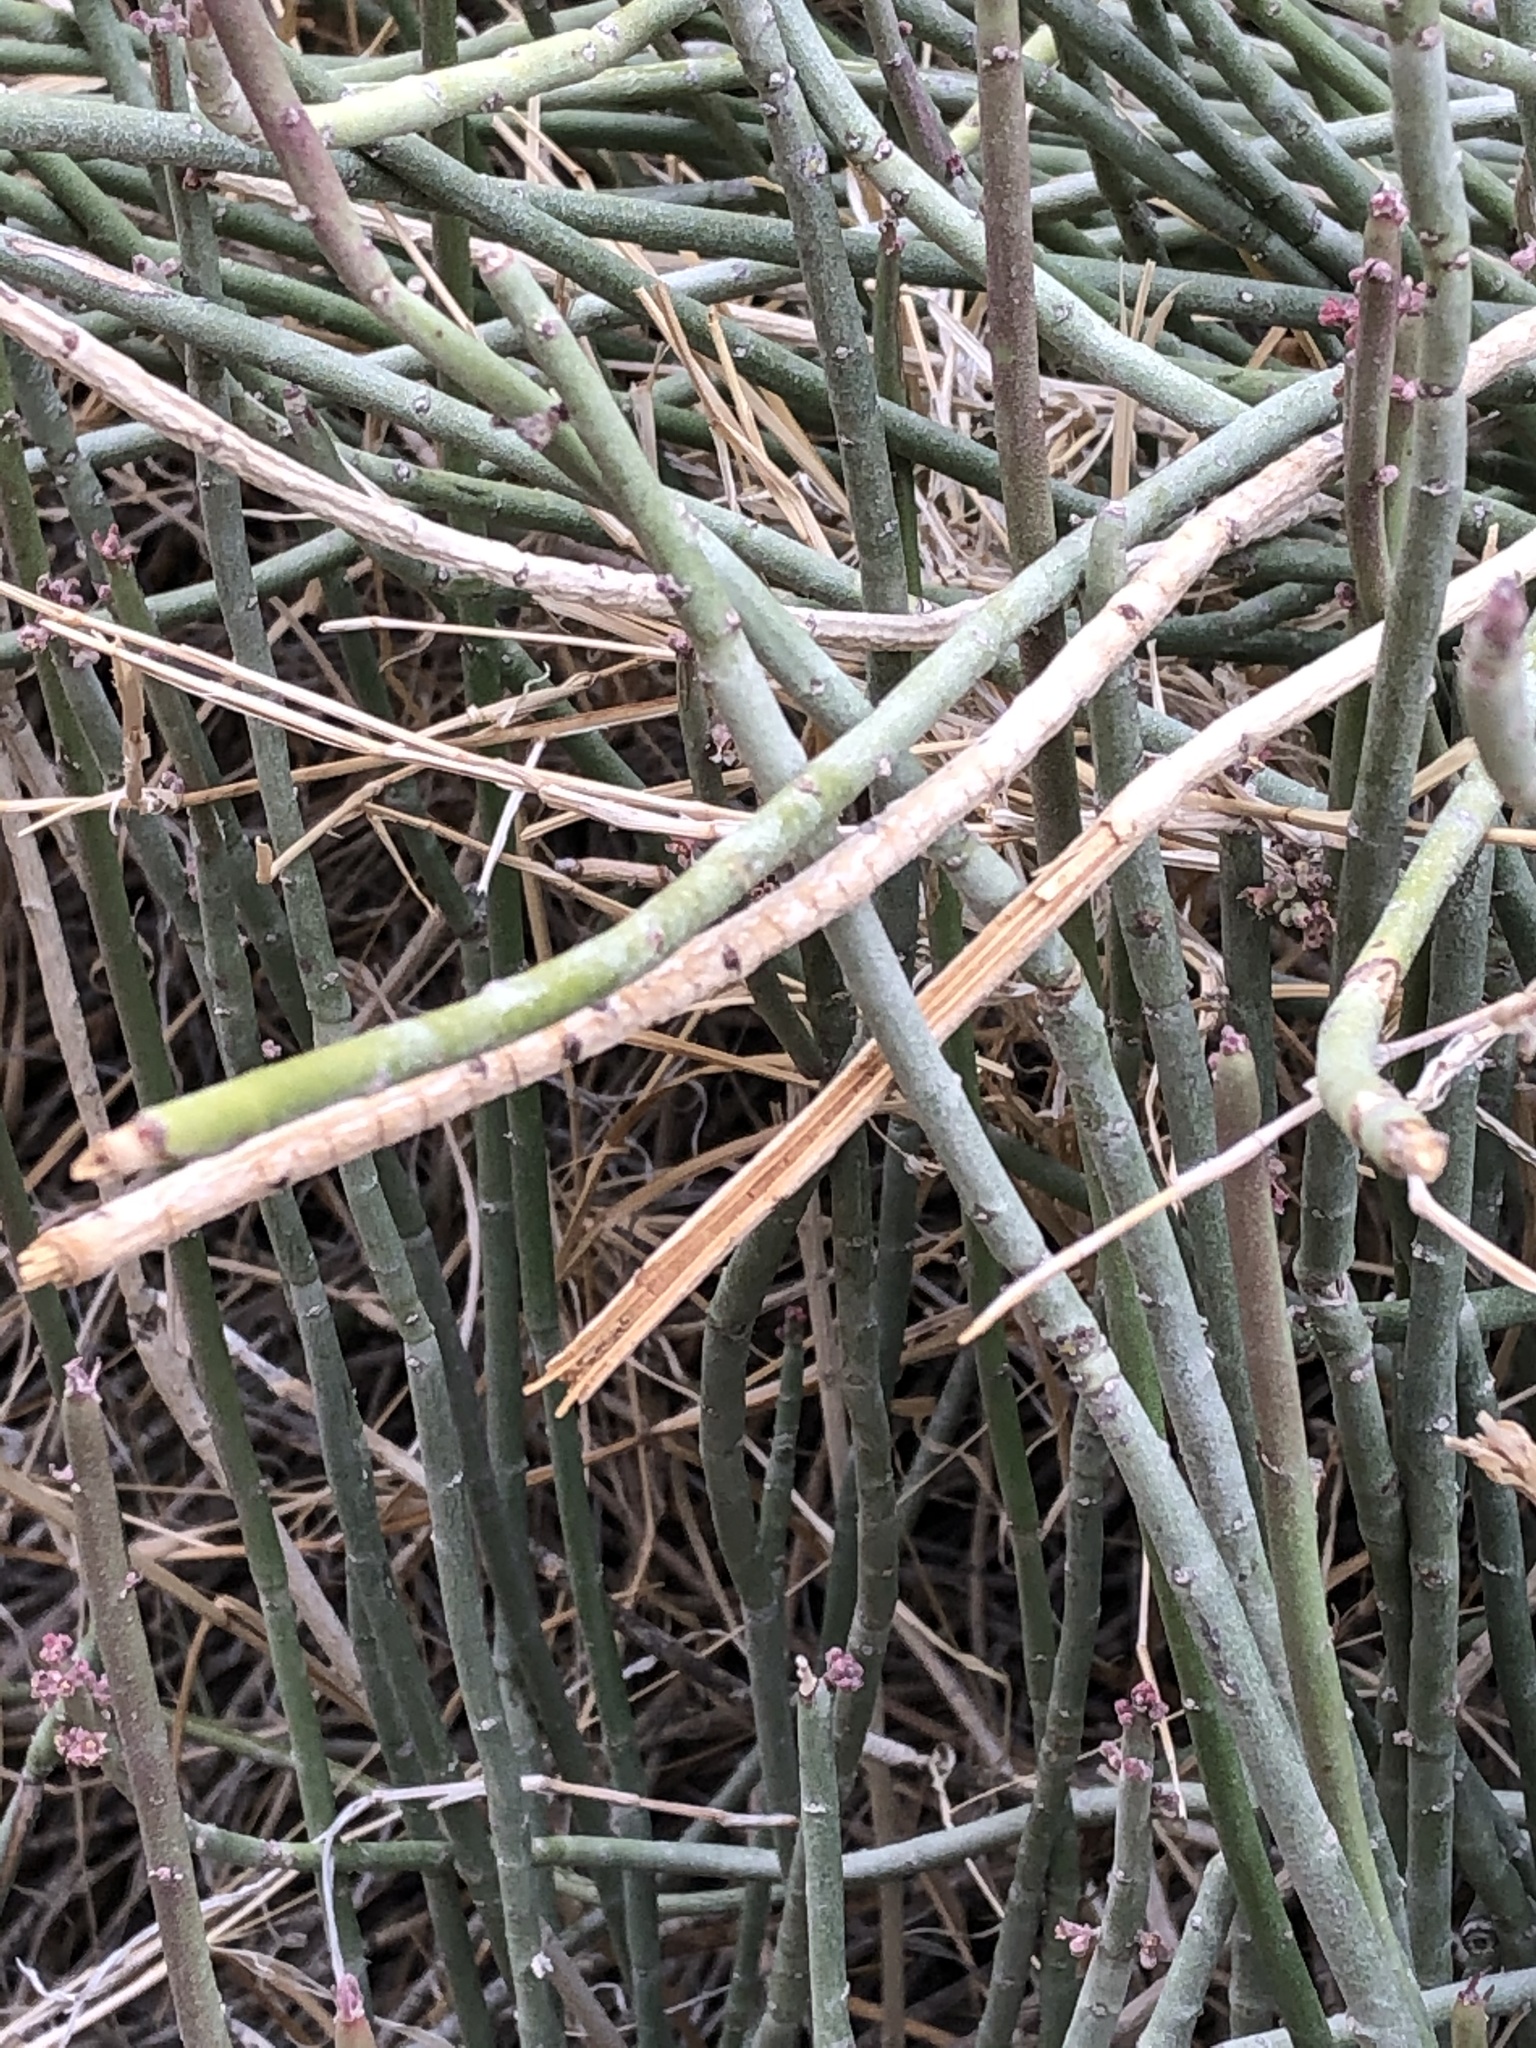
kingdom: Plantae
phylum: Tracheophyta
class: Magnoliopsida
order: Malpighiales
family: Euphorbiaceae
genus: Euphorbia
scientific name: Euphorbia antisyphilitica
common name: Candelilla
